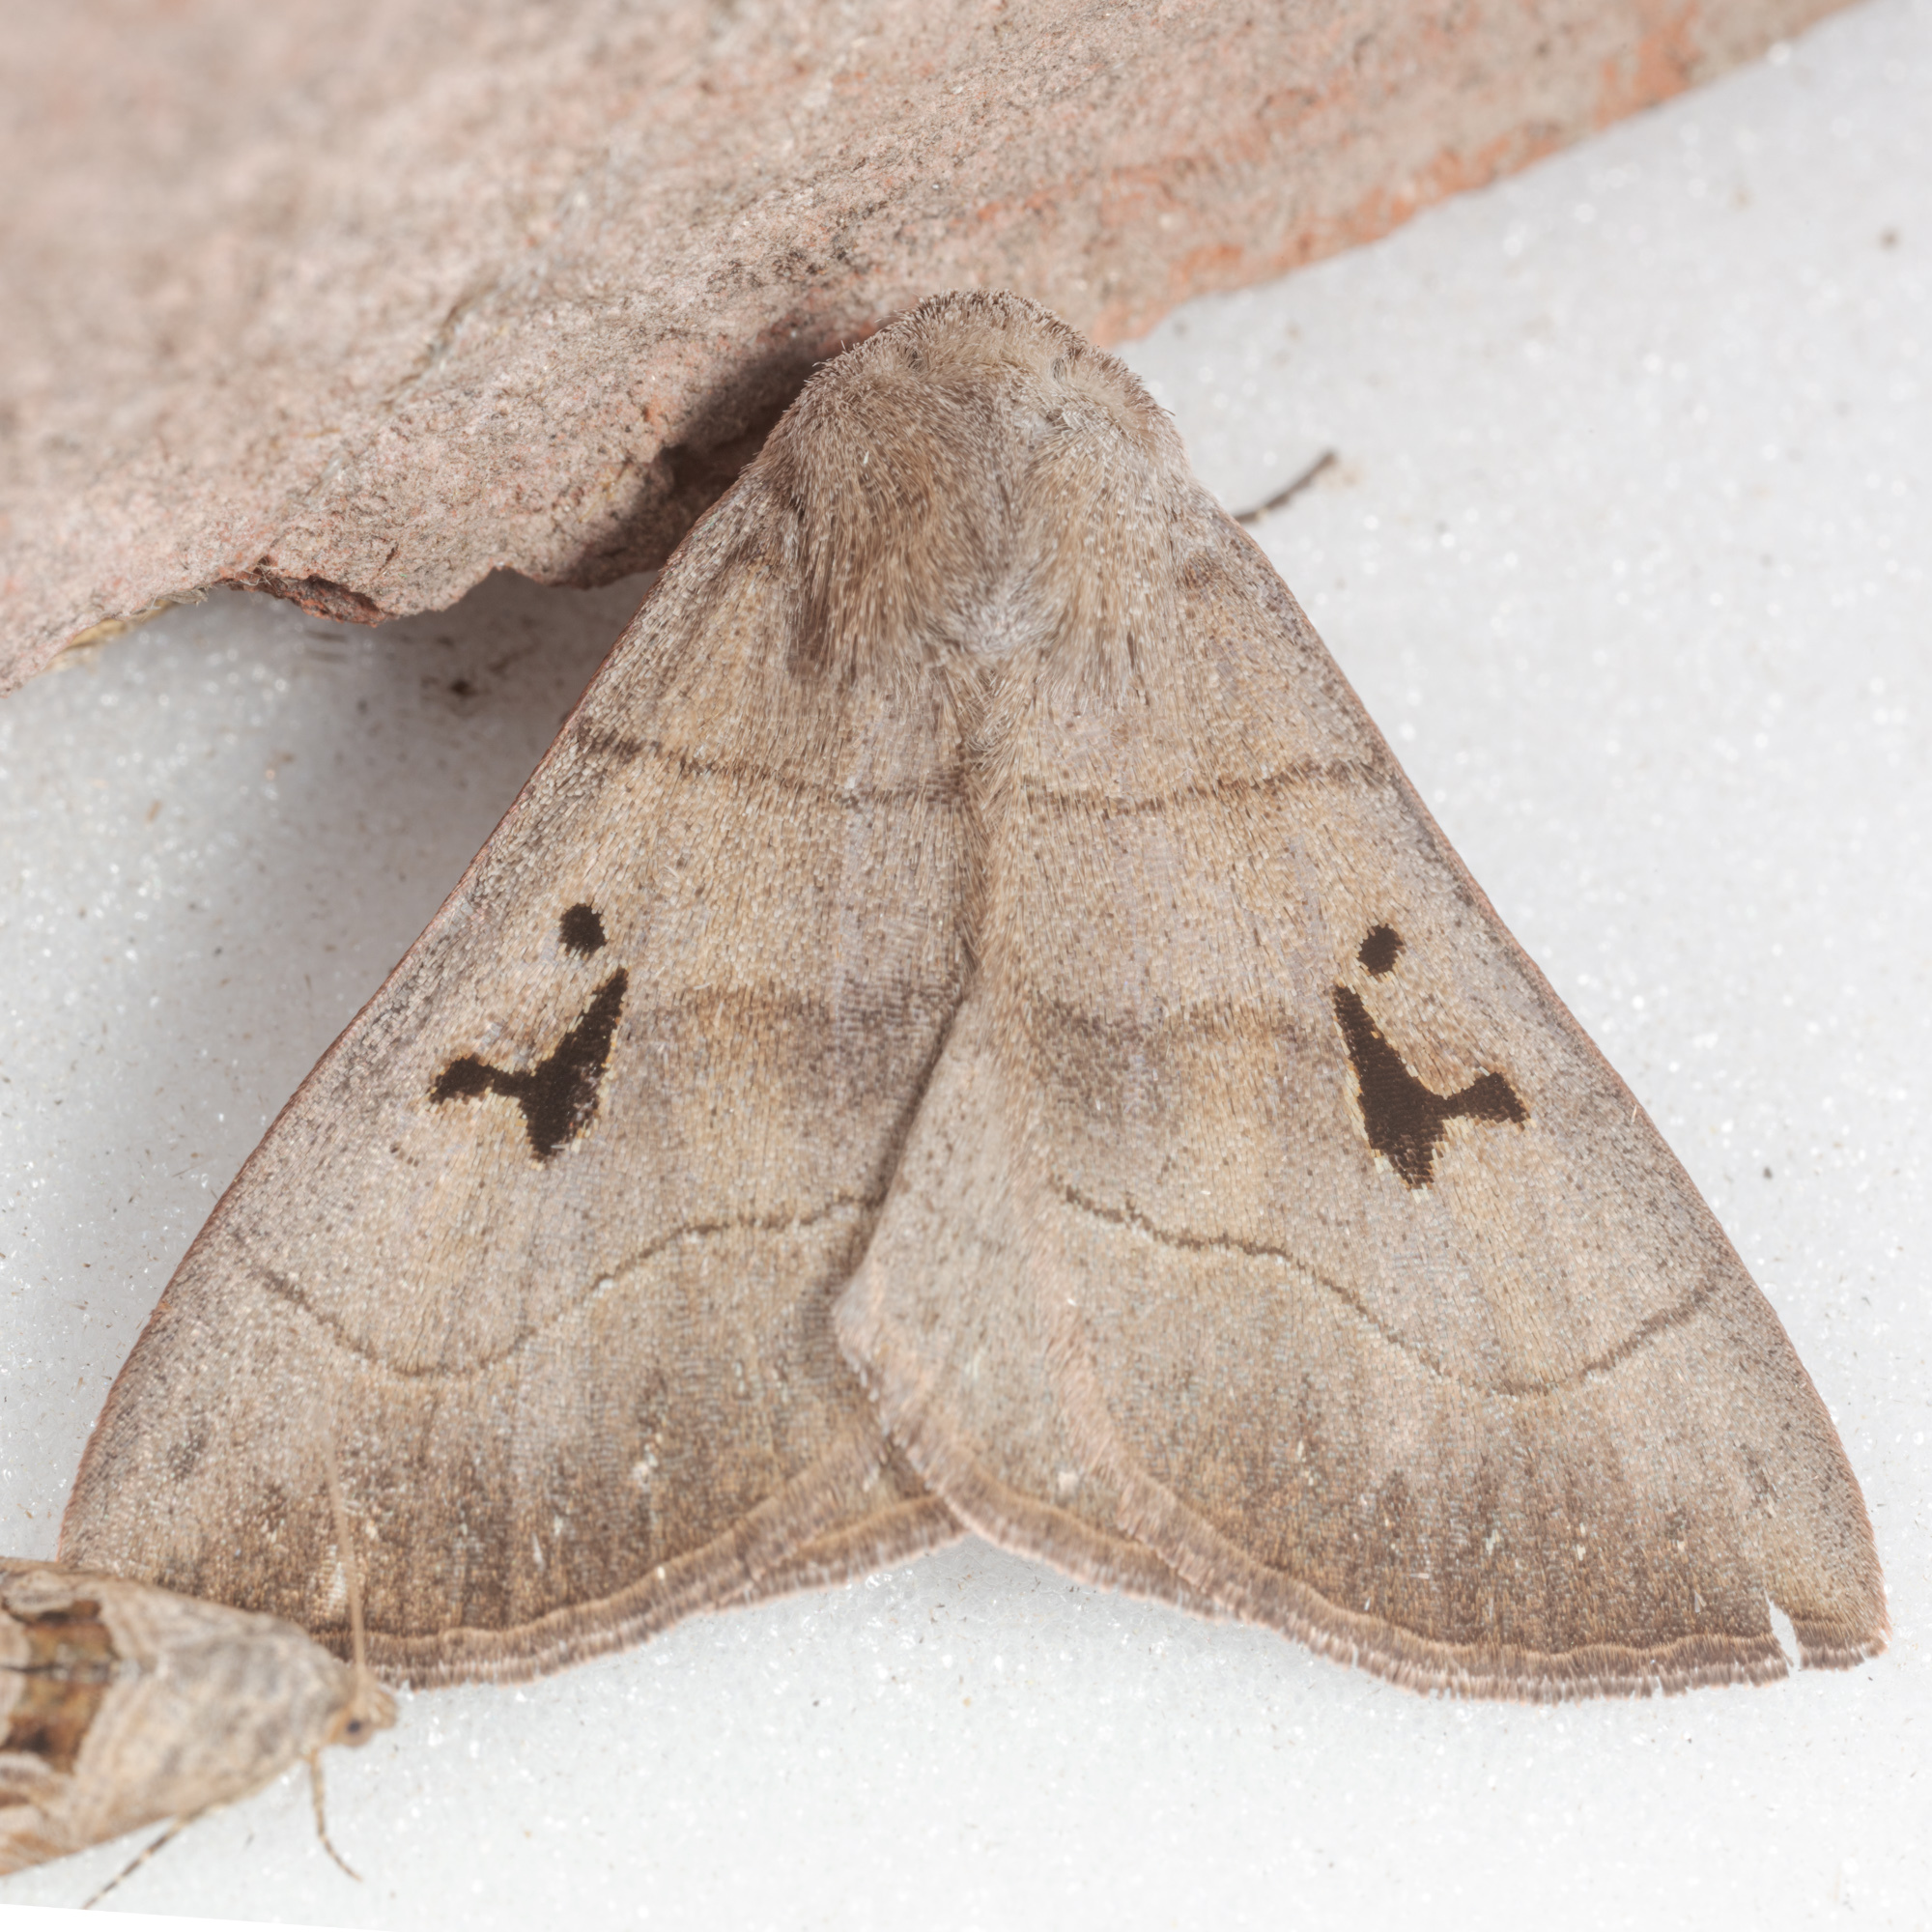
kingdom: Animalia
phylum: Arthropoda
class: Insecta
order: Lepidoptera
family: Erebidae
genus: Panopoda
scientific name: Panopoda carneicosta
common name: Brown panopoda moth
